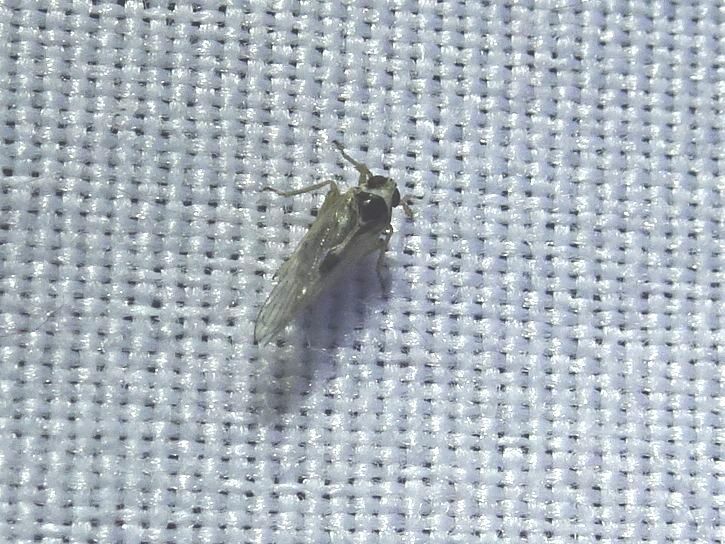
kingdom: Animalia
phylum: Arthropoda
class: Insecta
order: Hemiptera
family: Delphacidae
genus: Laodelphax
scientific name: Laodelphax striatellus
